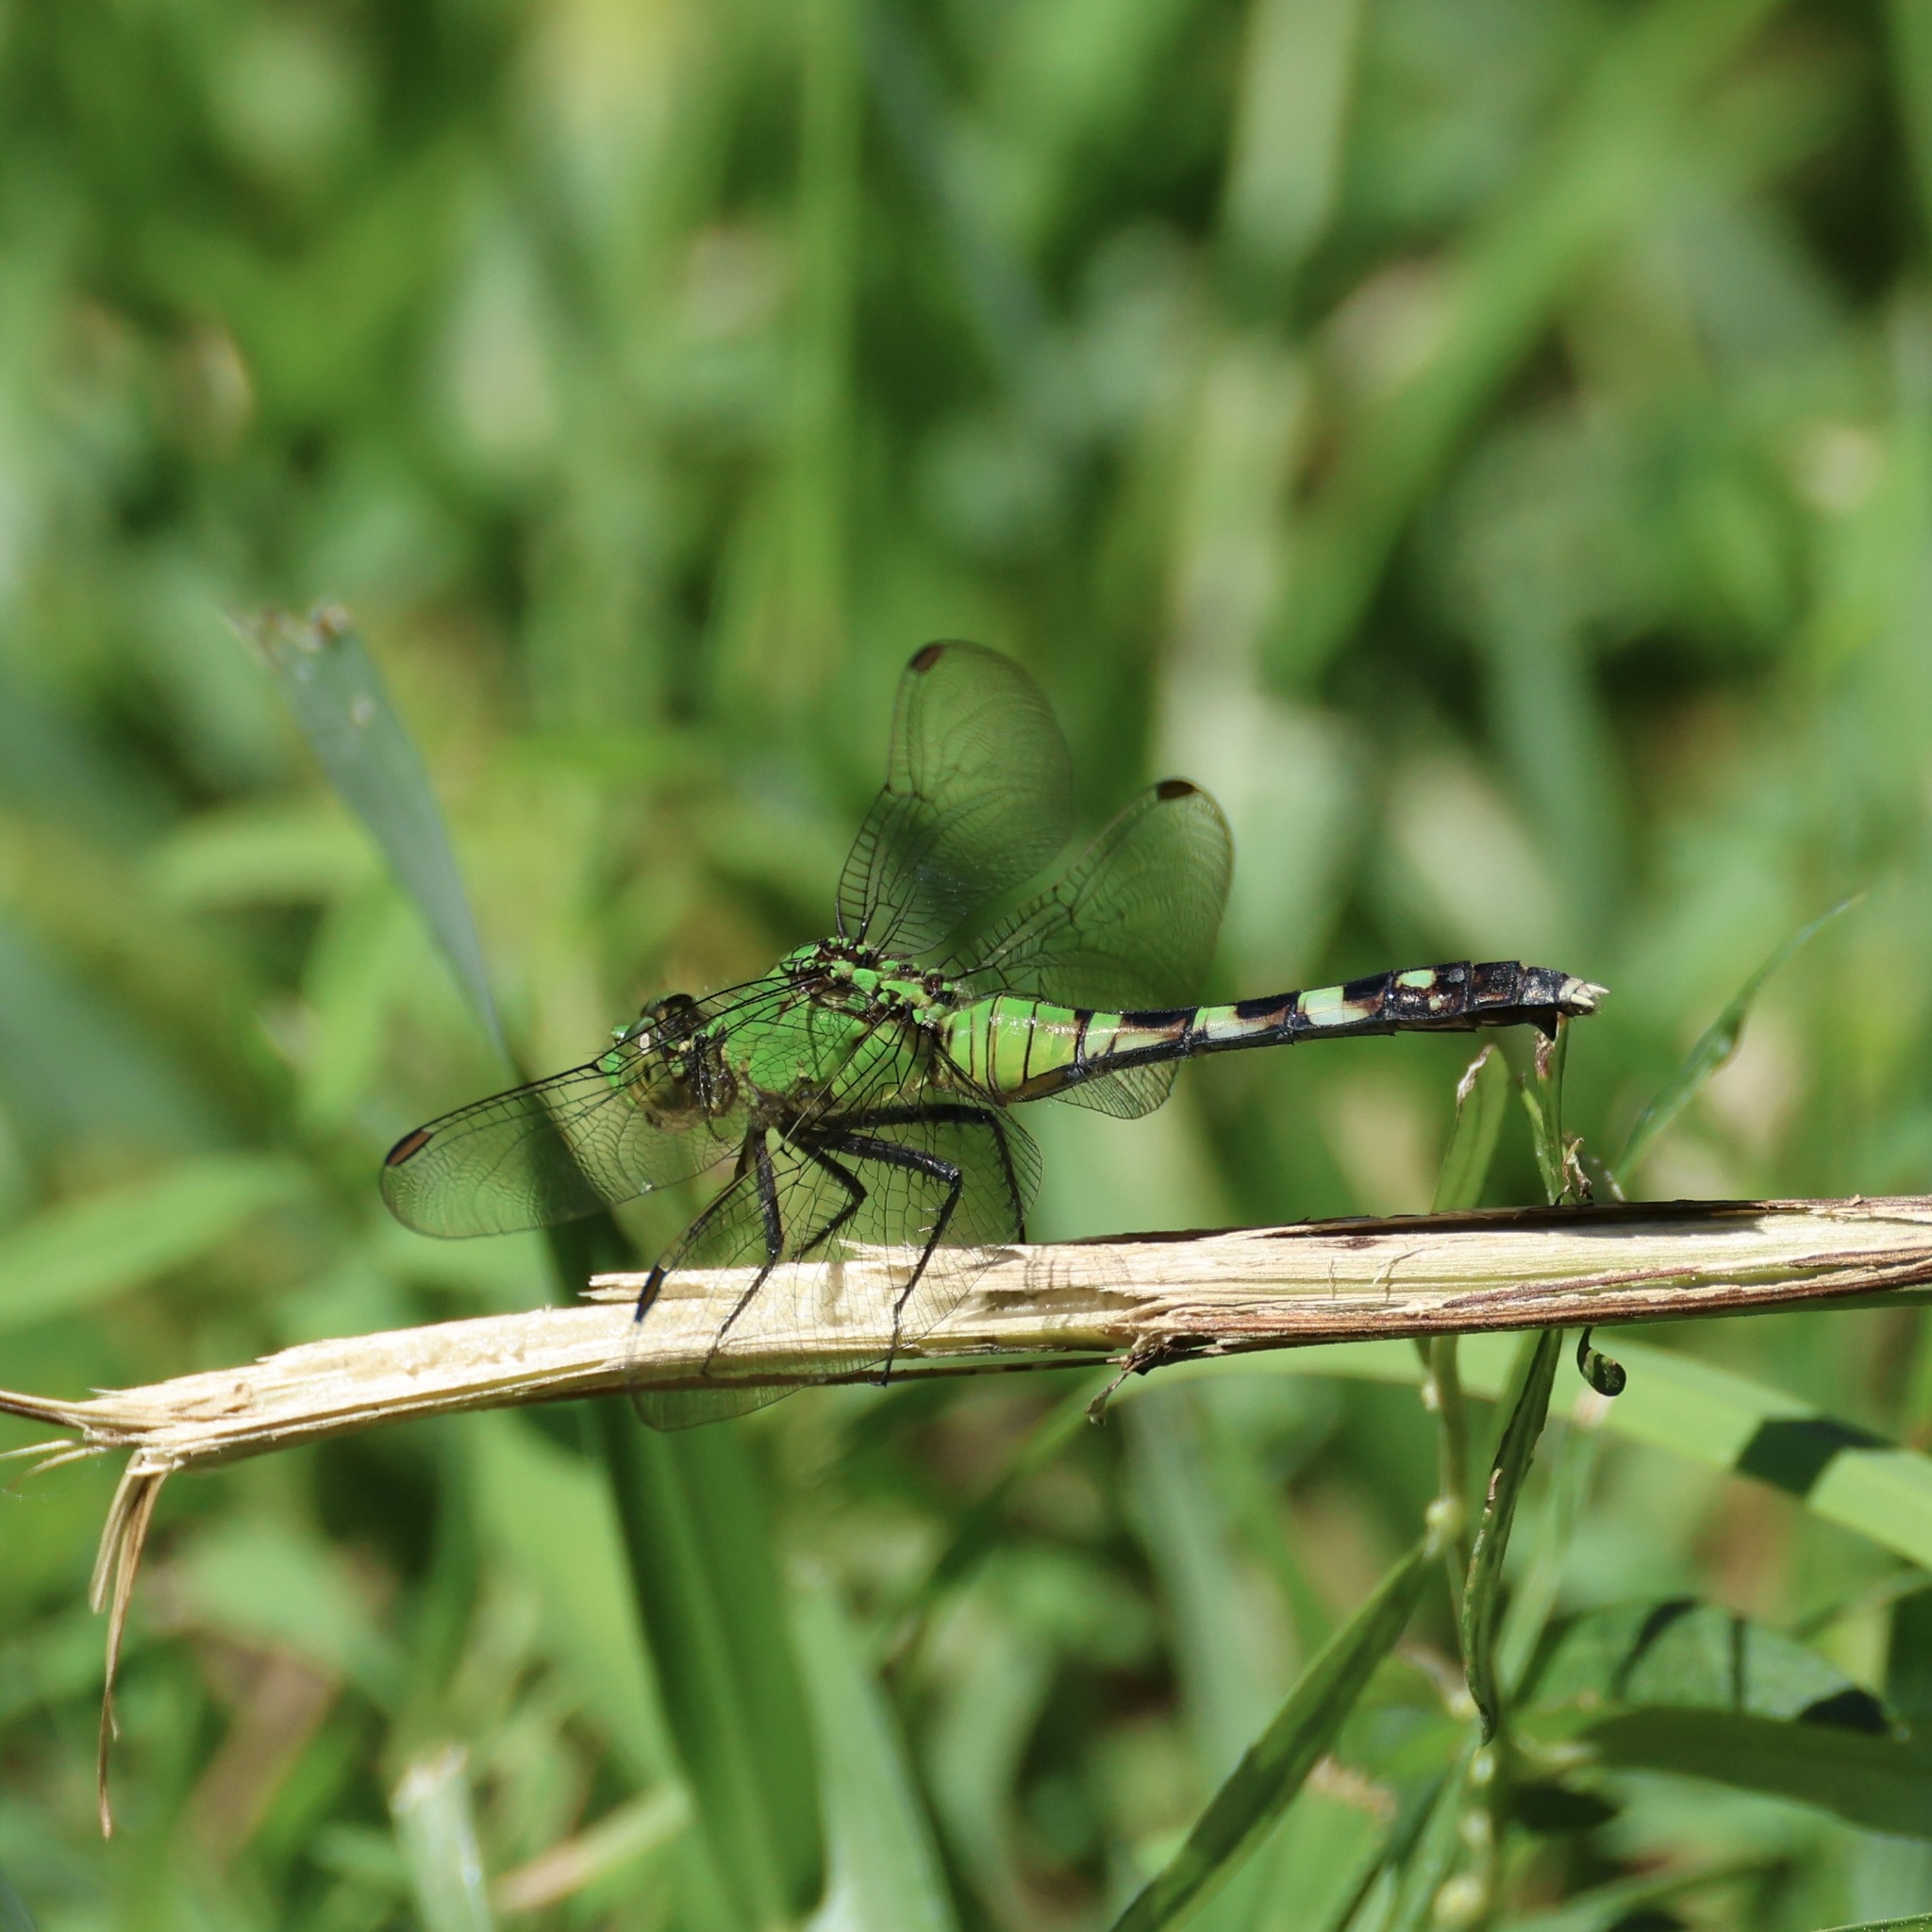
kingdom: Animalia
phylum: Arthropoda
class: Insecta
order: Odonata
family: Libellulidae
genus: Erythemis
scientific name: Erythemis simplicicollis
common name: Eastern pondhawk
